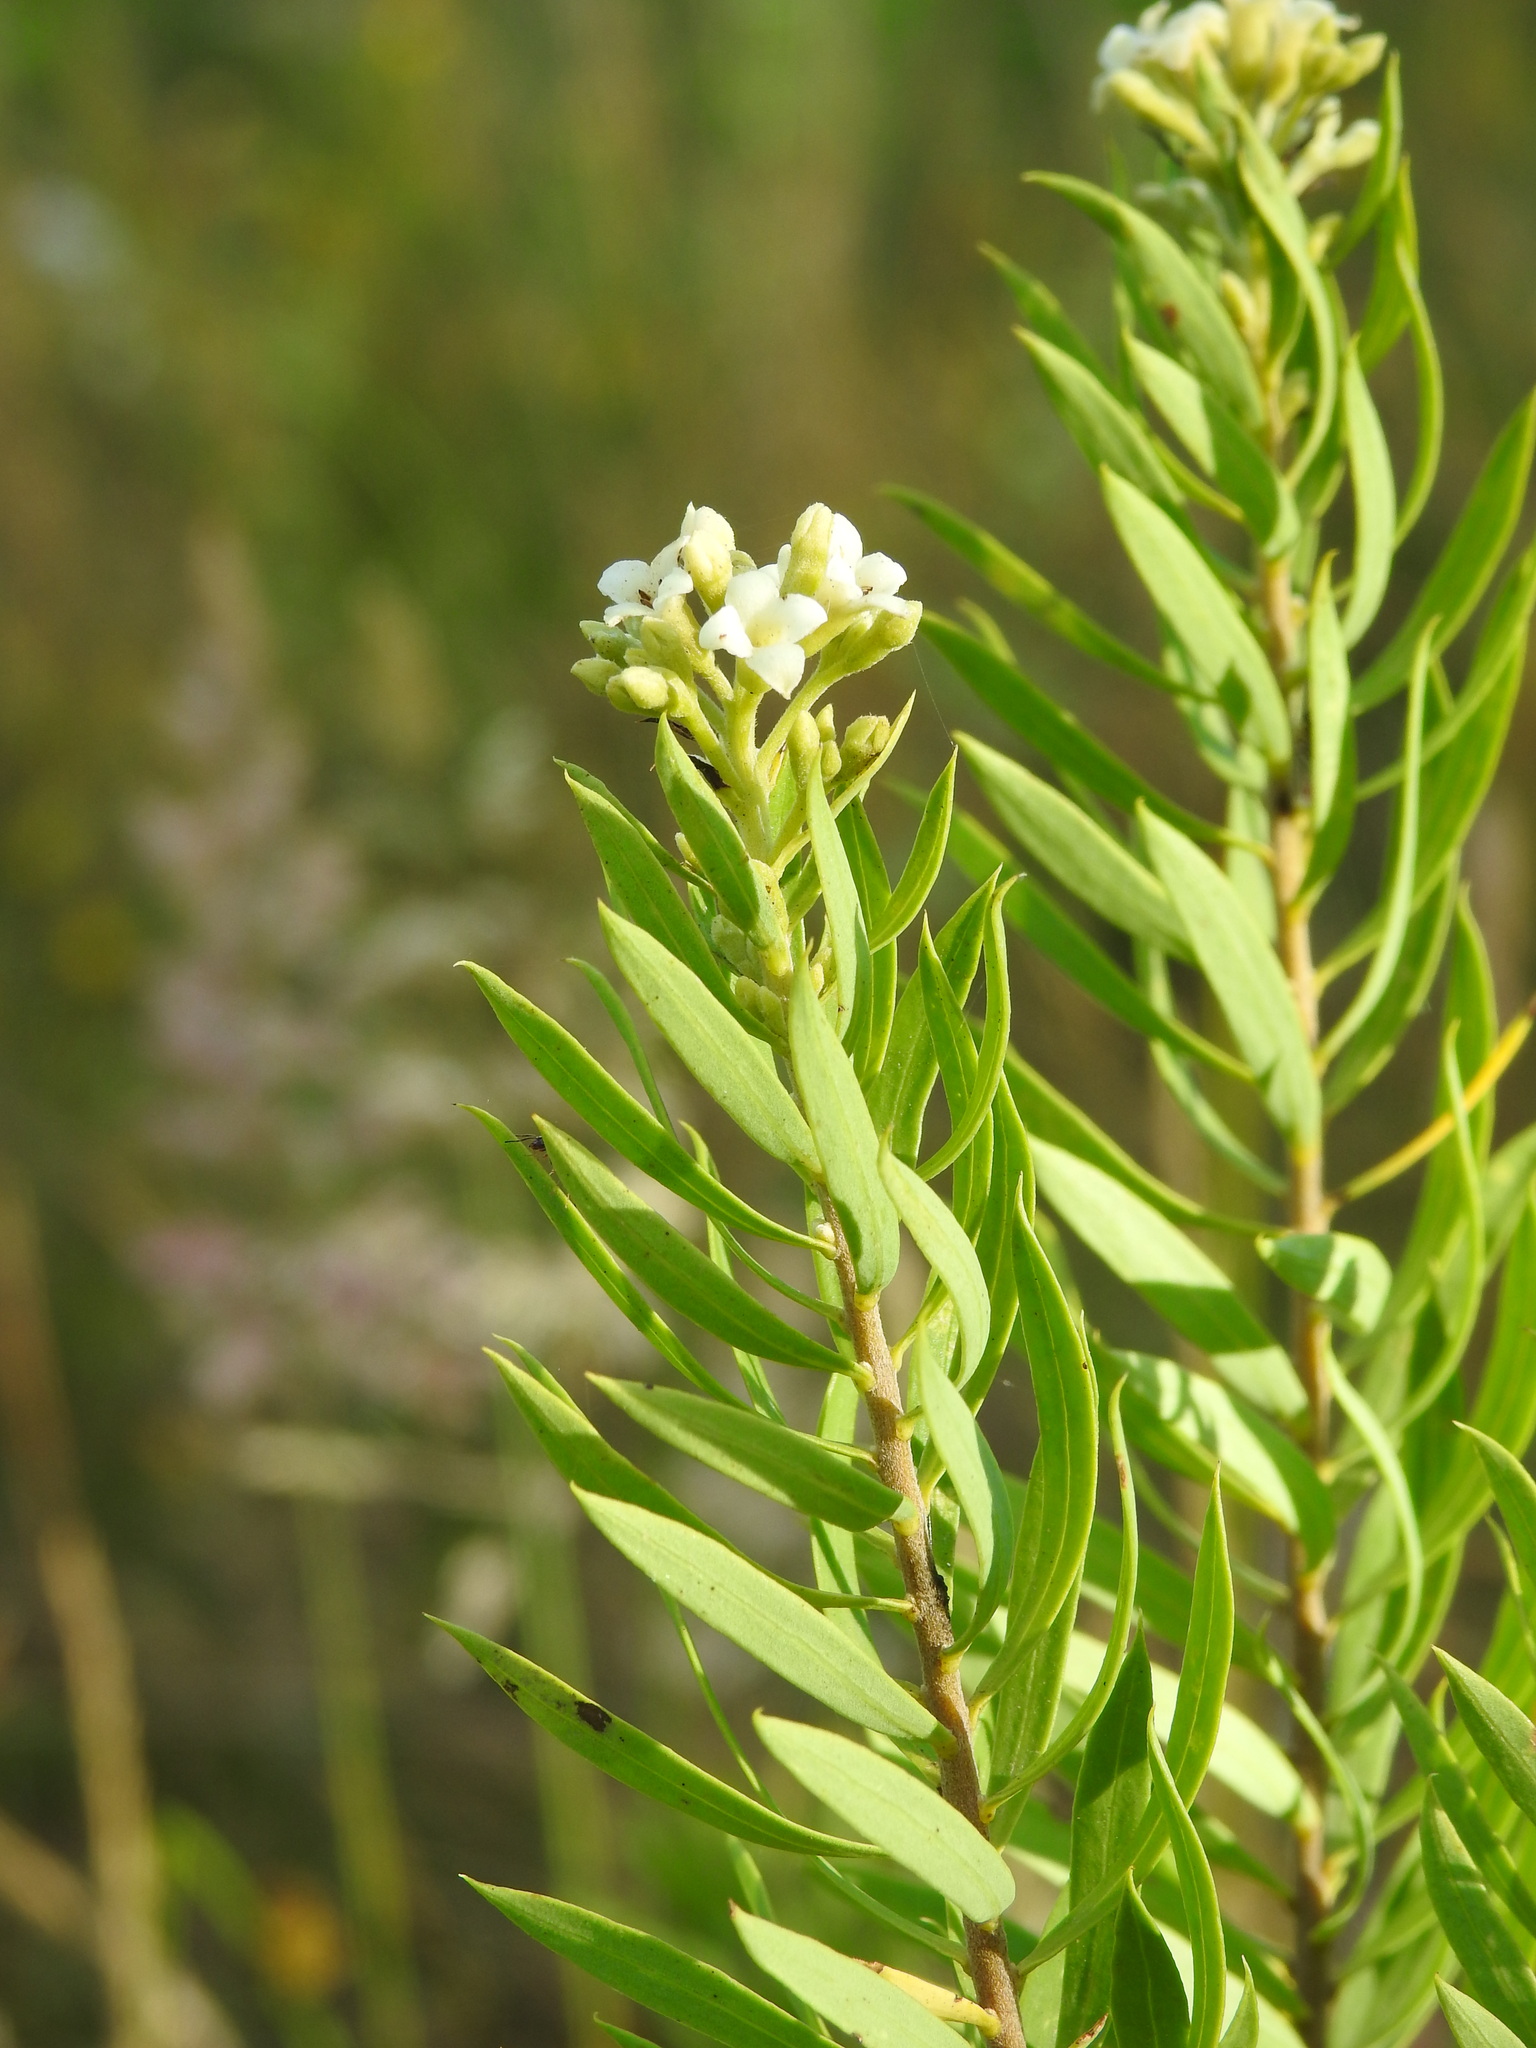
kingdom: Plantae
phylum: Tracheophyta
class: Magnoliopsida
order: Malvales
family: Thymelaeaceae
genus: Daphne
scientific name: Daphne gnidium
